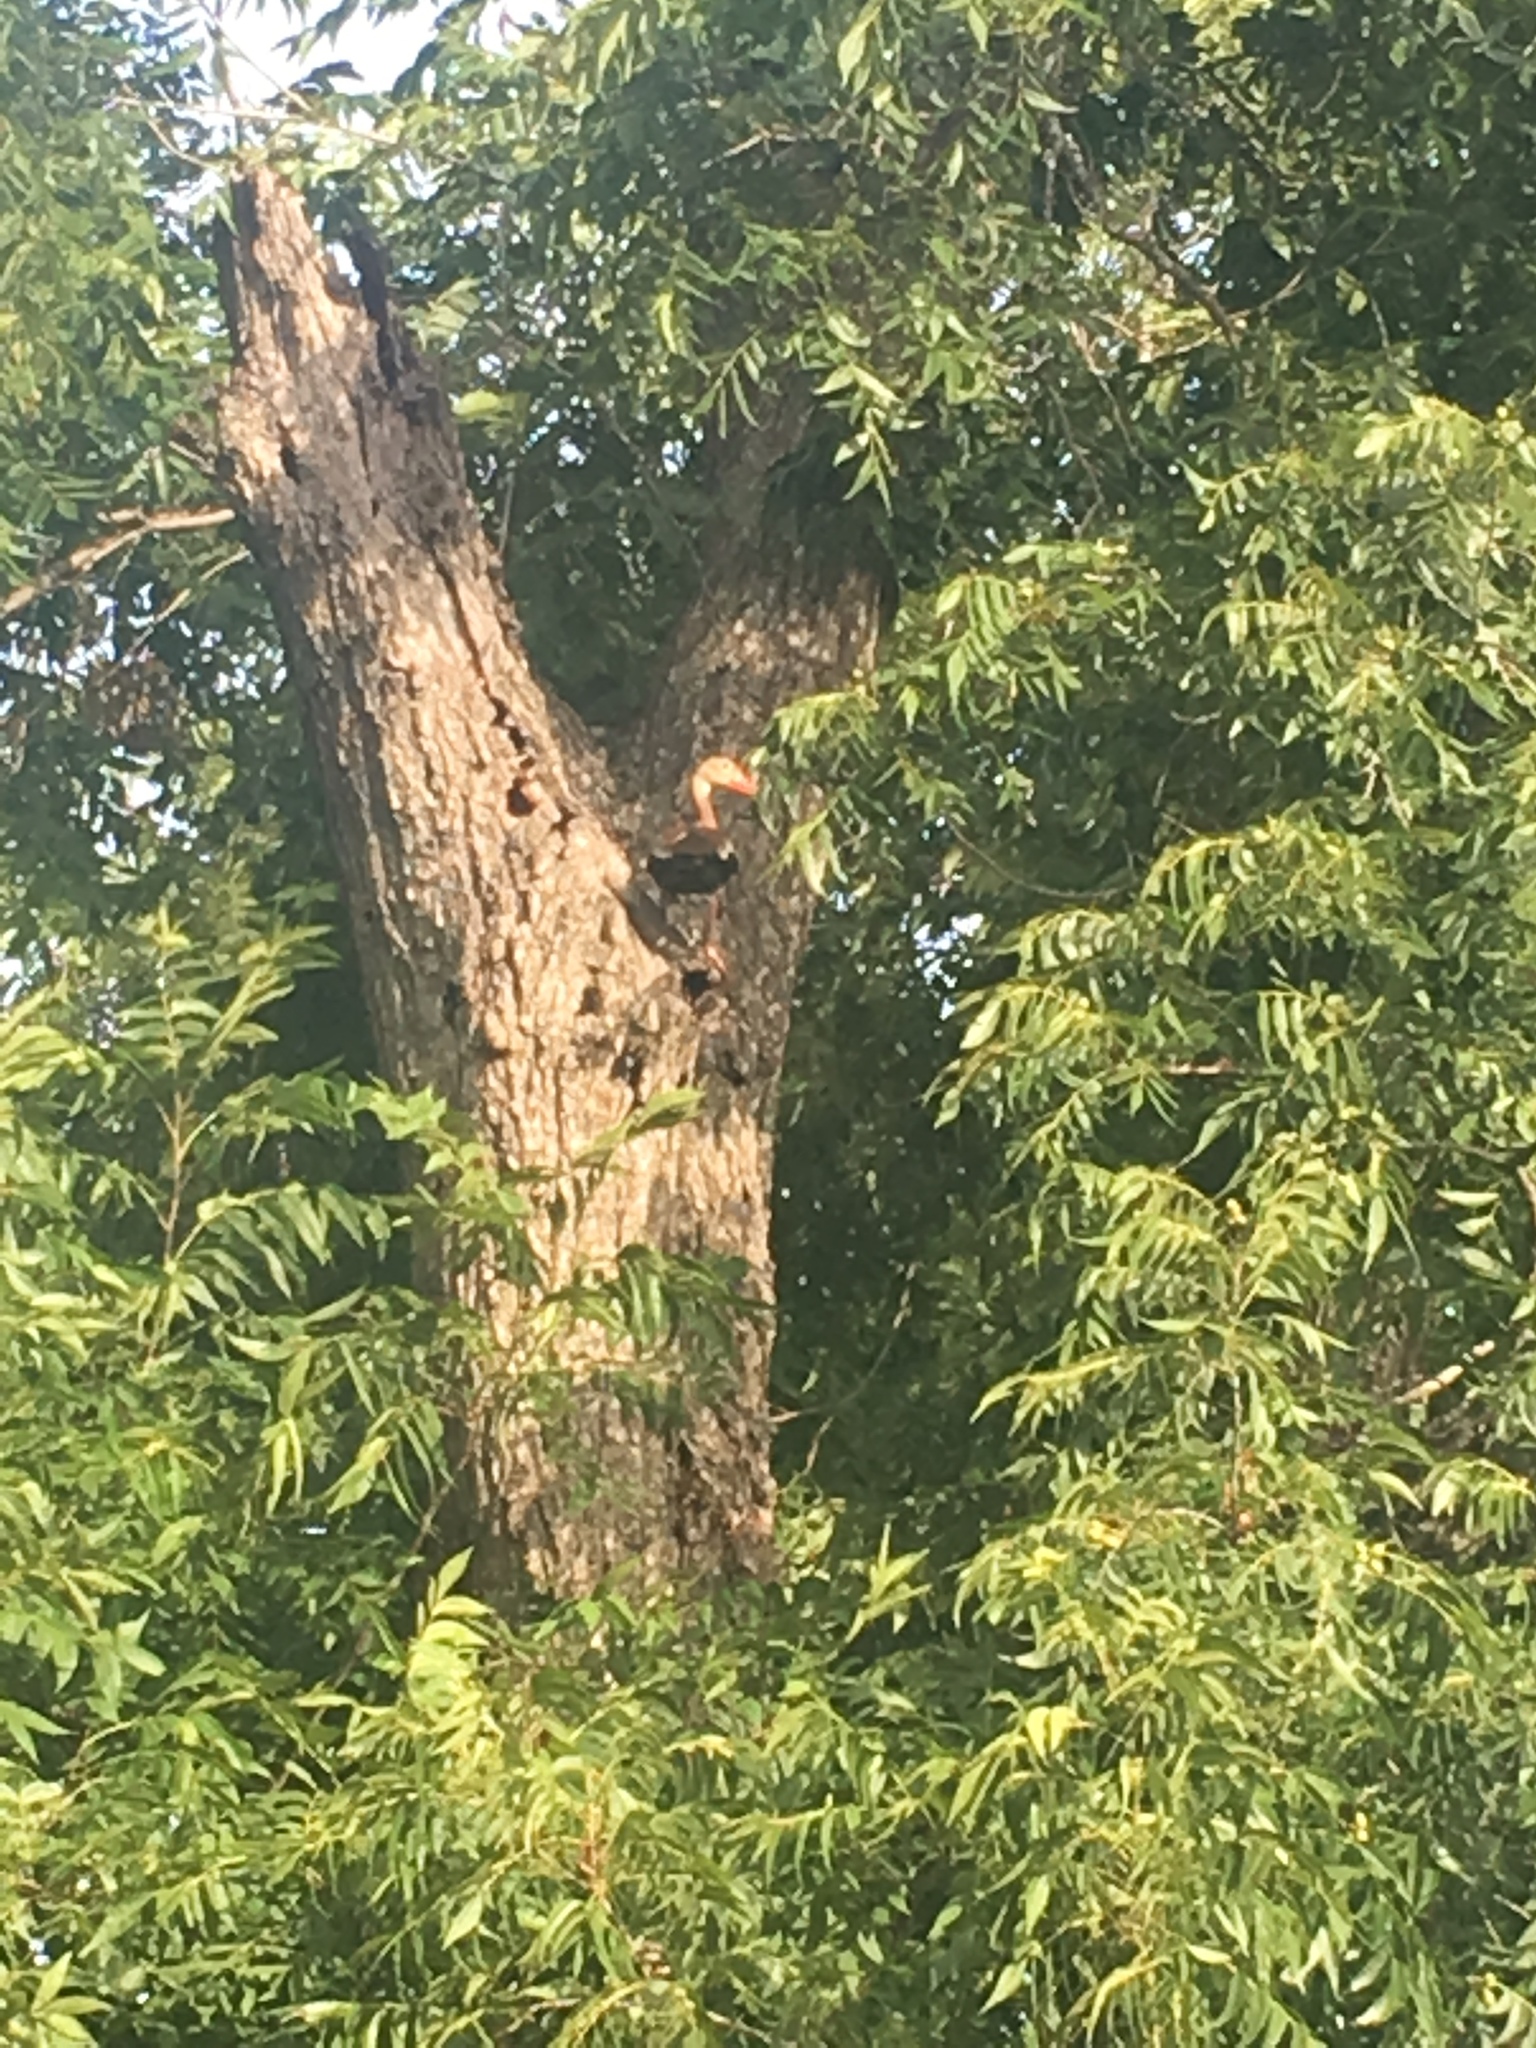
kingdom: Animalia
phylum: Chordata
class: Aves
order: Anseriformes
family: Anatidae
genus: Dendrocygna
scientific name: Dendrocygna autumnalis
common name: Black-bellied whistling duck
